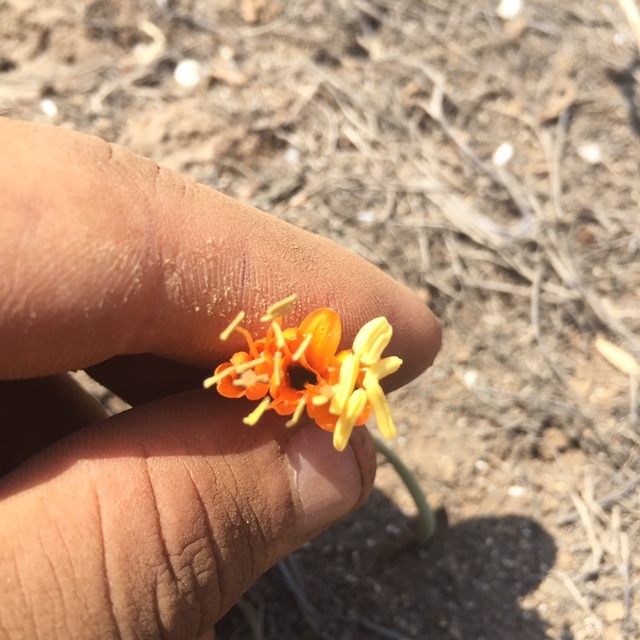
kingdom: Plantae
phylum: Tracheophyta
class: Liliopsida
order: Asparagales
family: Amaryllidaceae
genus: Stenomesson
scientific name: Stenomesson flavum
